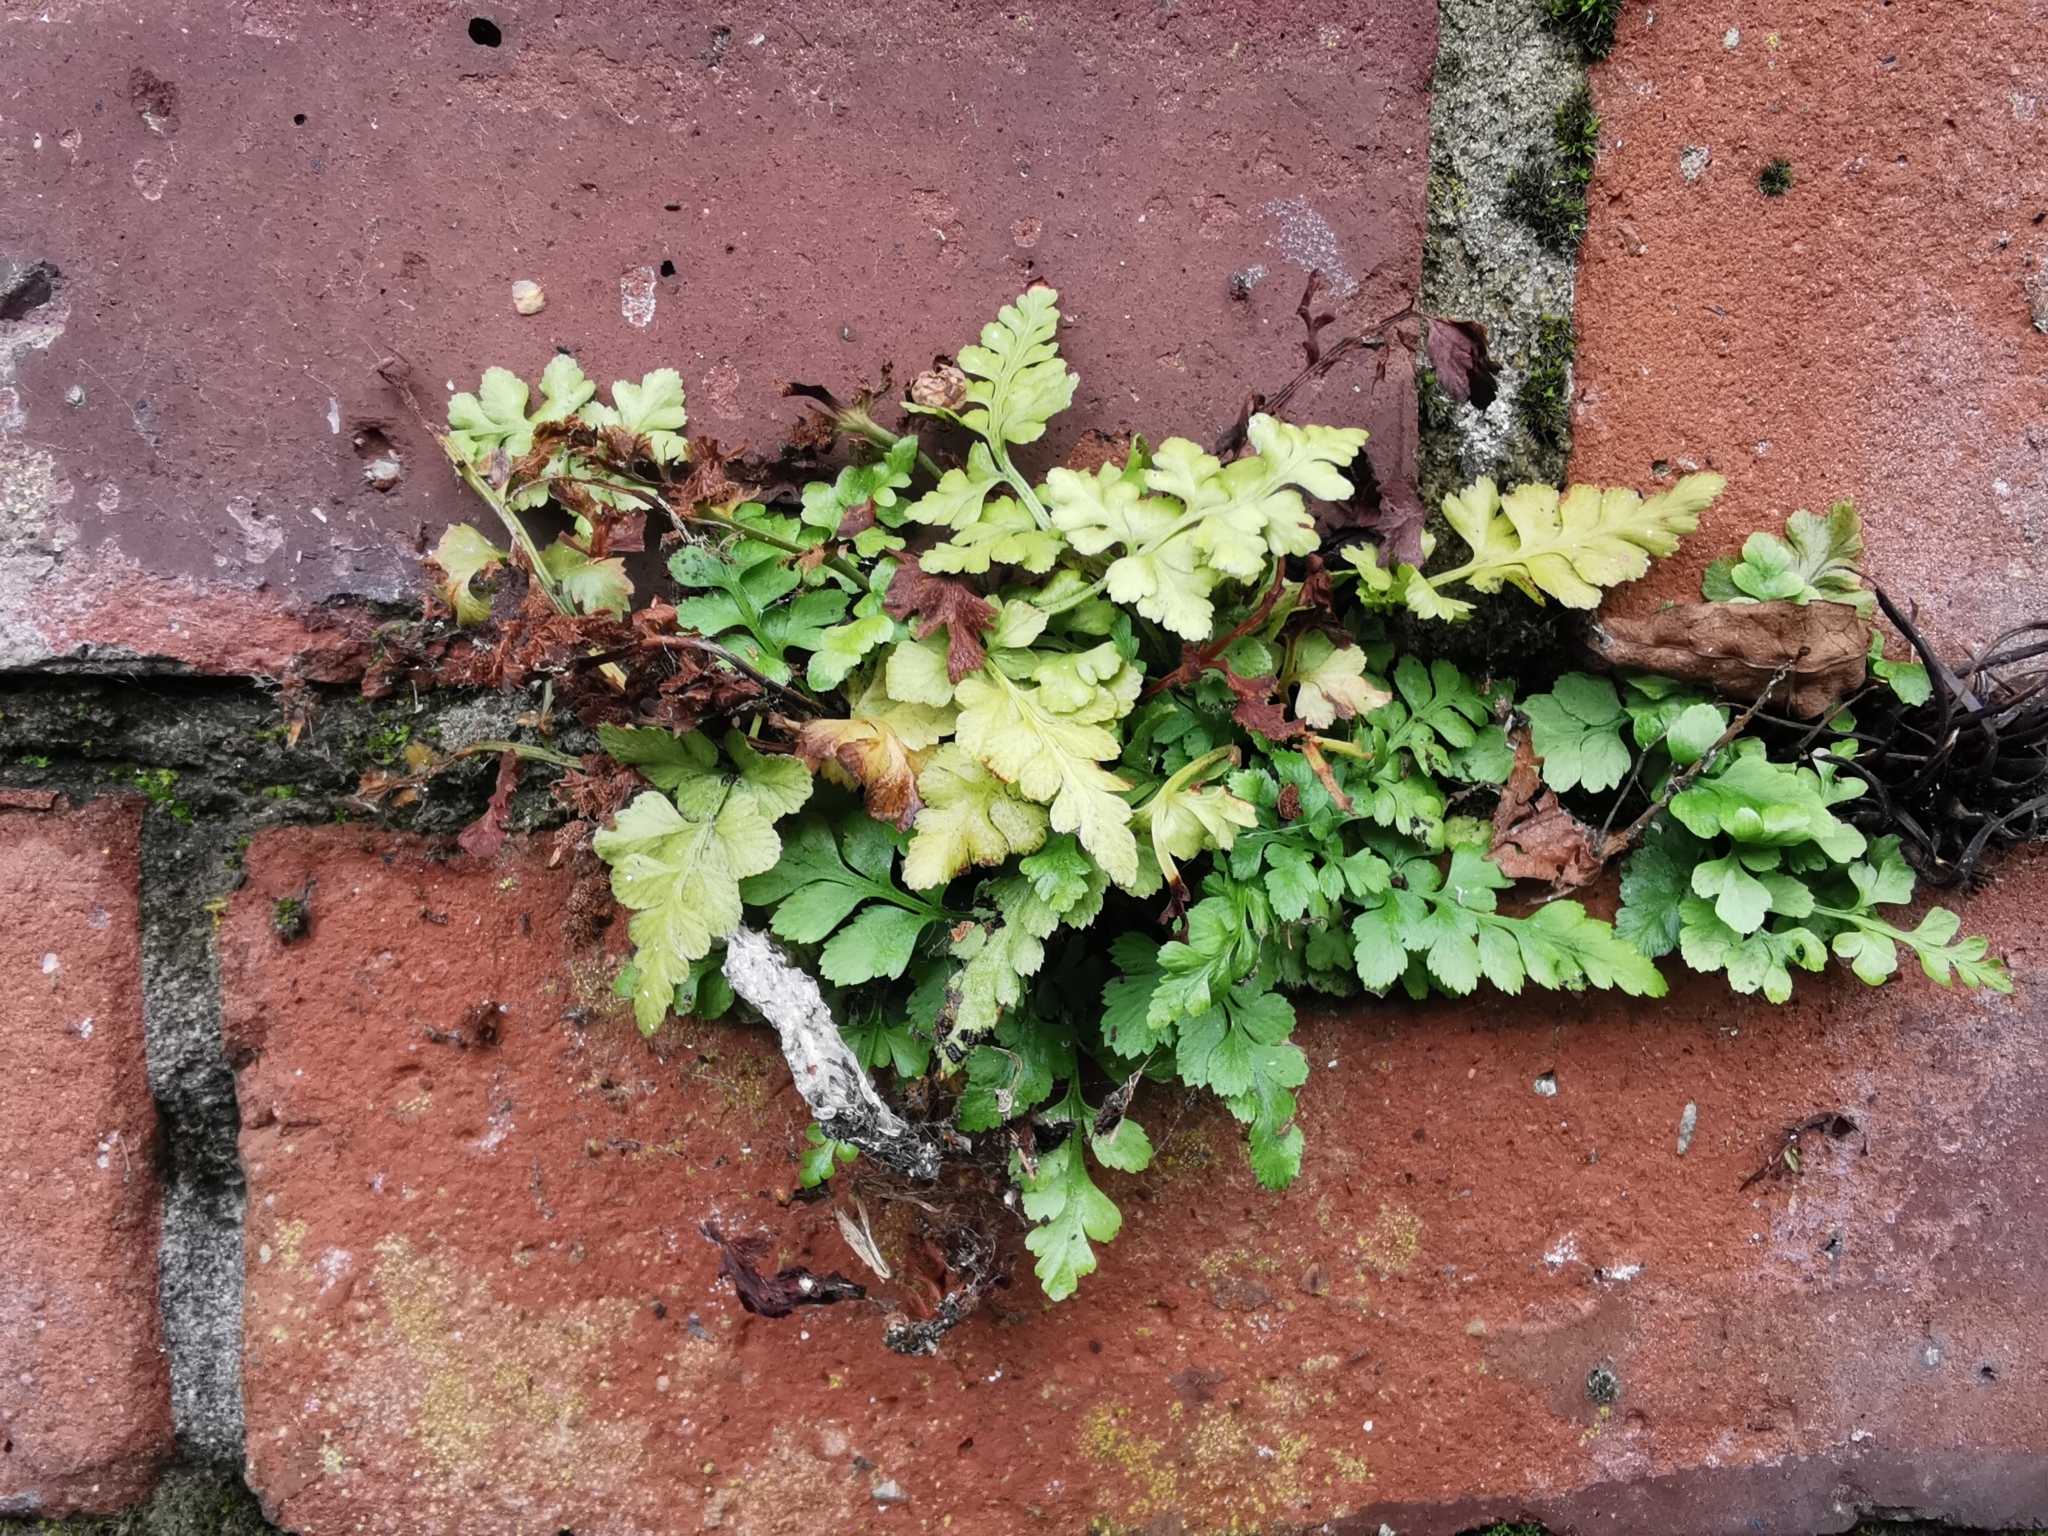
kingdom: Plantae
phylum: Tracheophyta
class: Polypodiopsida
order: Polypodiales
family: Aspleniaceae
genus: Asplenium
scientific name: Asplenium adiantum-nigrum
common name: Black spleenwort
